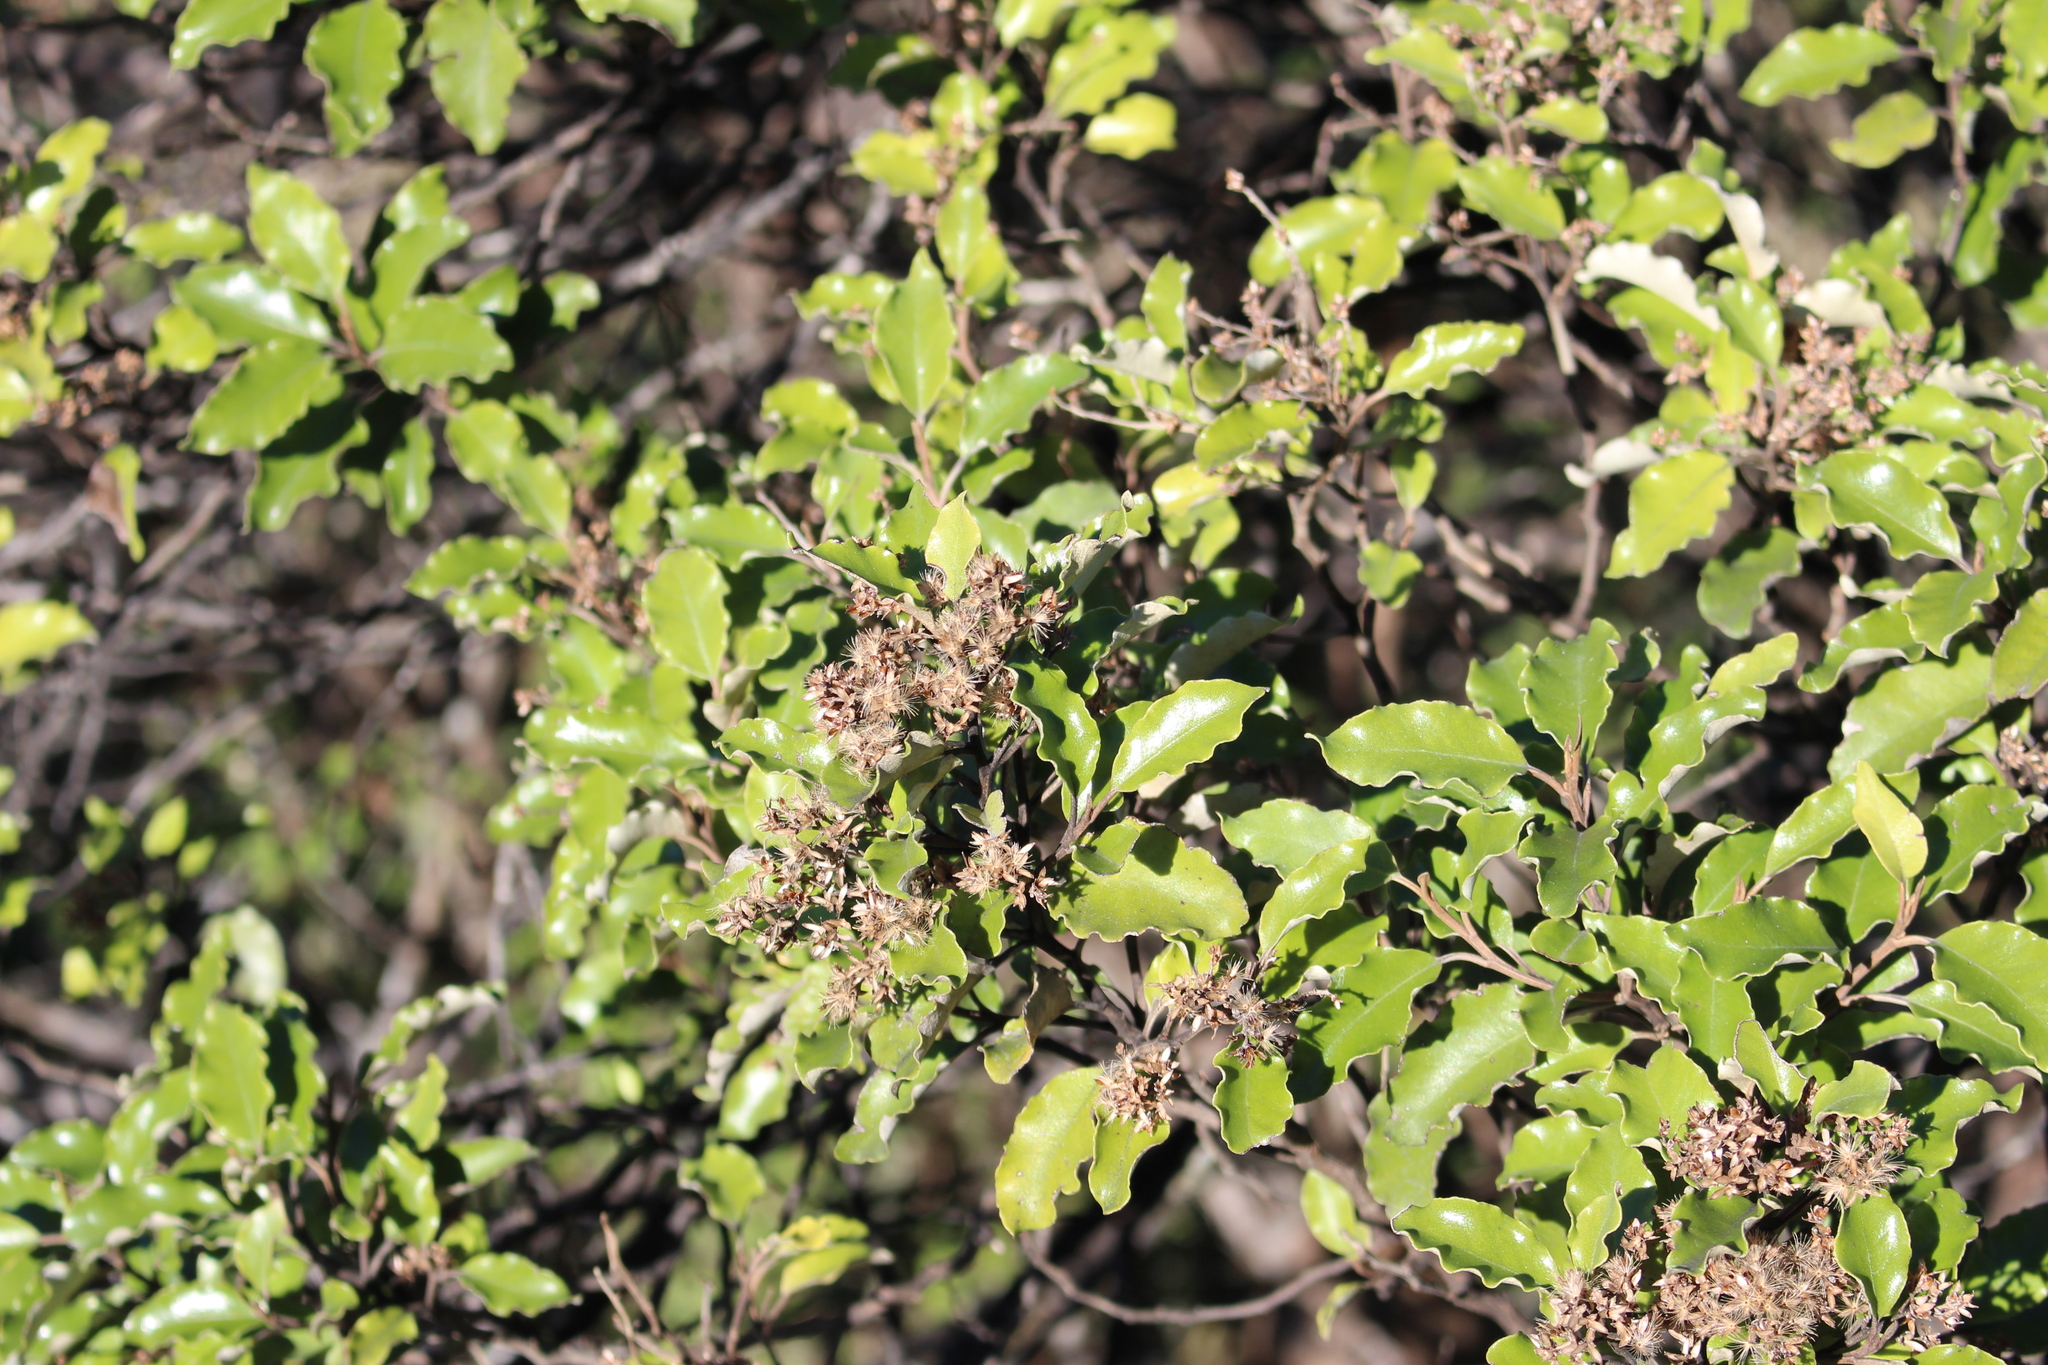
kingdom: Plantae
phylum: Tracheophyta
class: Magnoliopsida
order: Asterales
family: Asteraceae
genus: Olearia
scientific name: Olearia paniculata
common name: Akiraho
